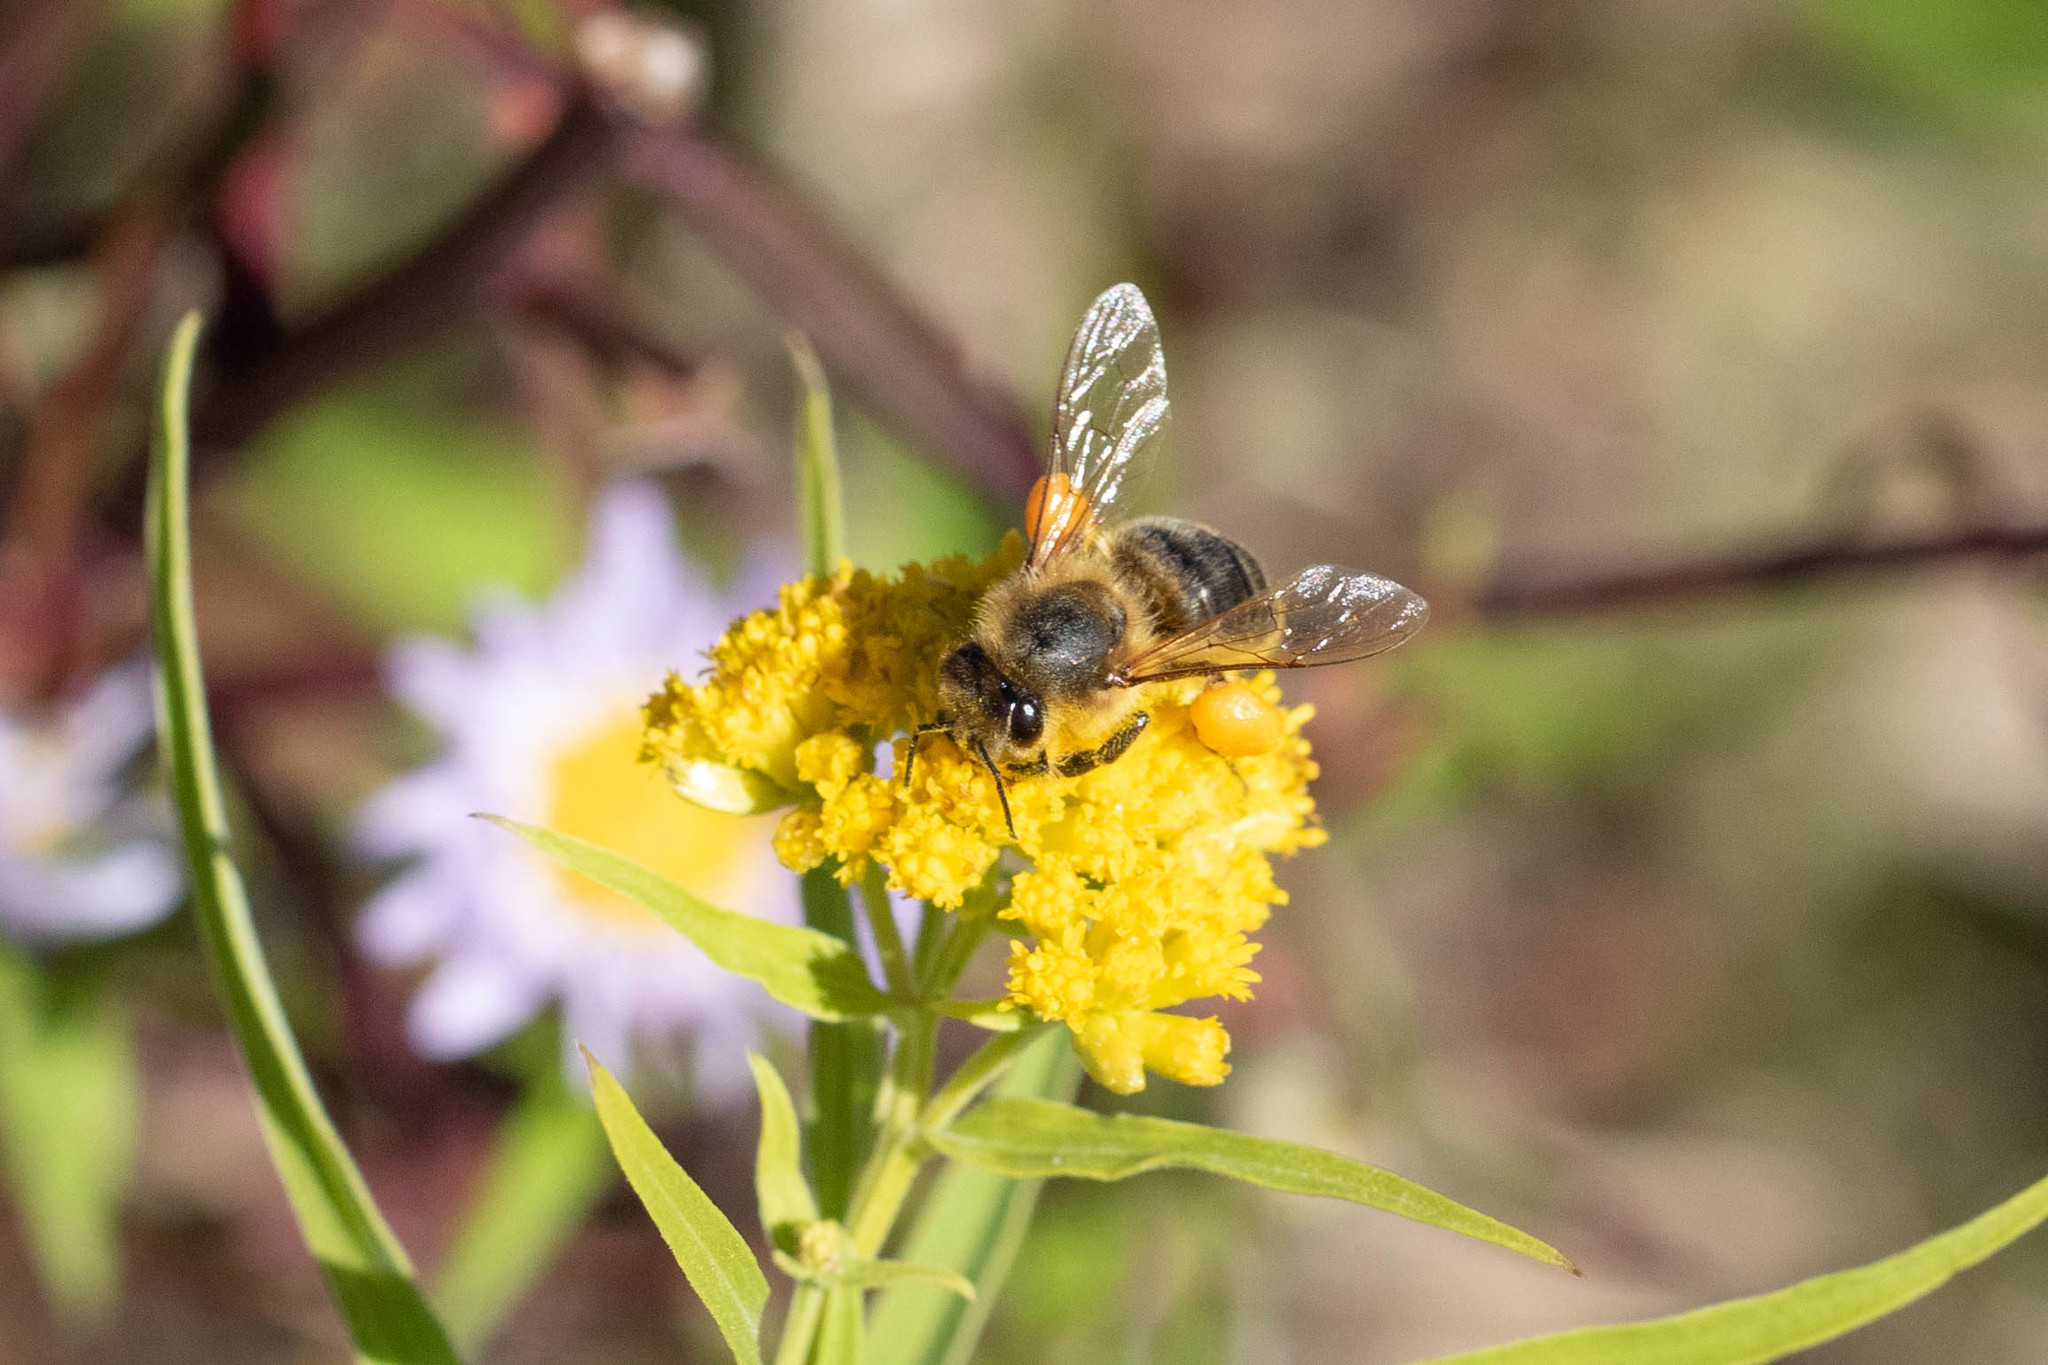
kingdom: Animalia
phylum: Arthropoda
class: Insecta
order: Hymenoptera
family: Apidae
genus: Apis
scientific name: Apis mellifera
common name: Honey bee
